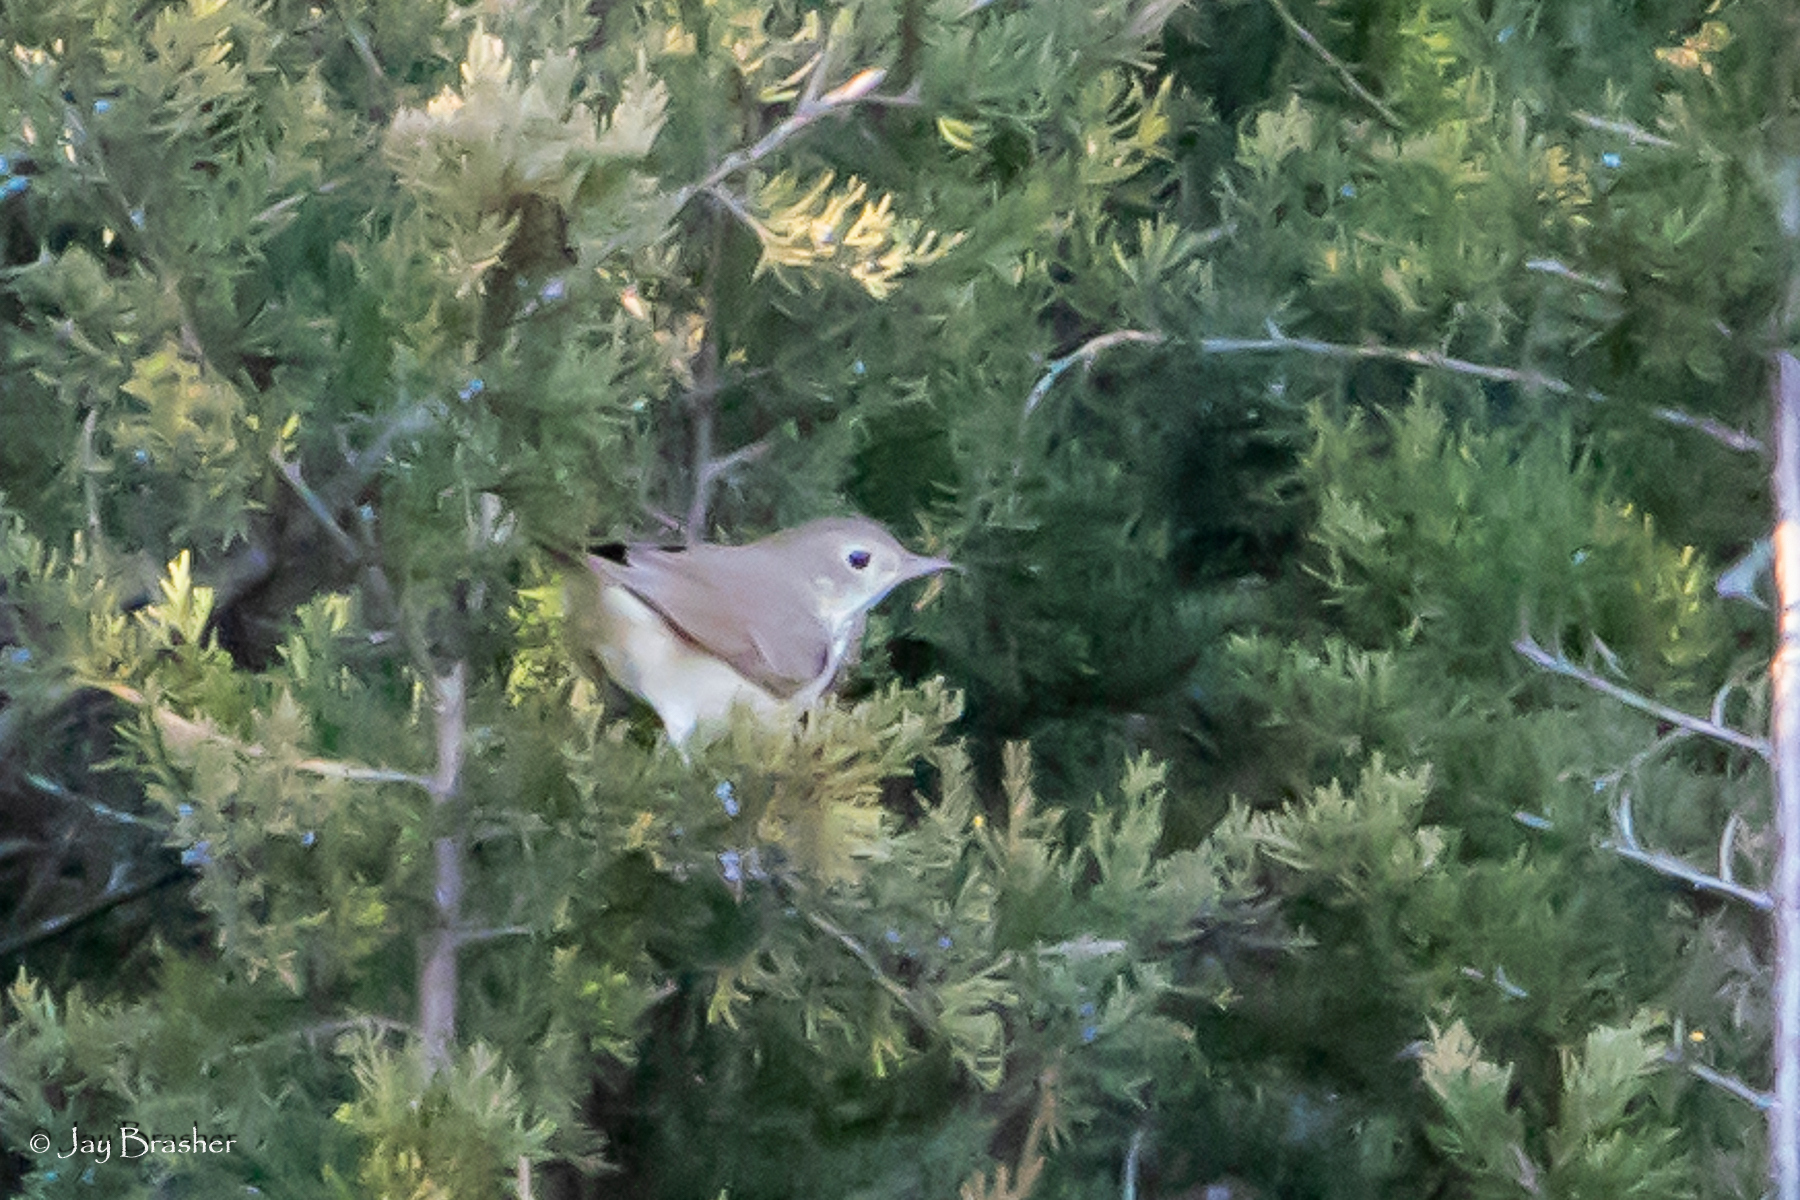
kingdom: Animalia
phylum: Chordata
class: Aves
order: Passeriformes
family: Turdidae
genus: Catharus
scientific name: Catharus guttatus
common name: Hermit thrush
